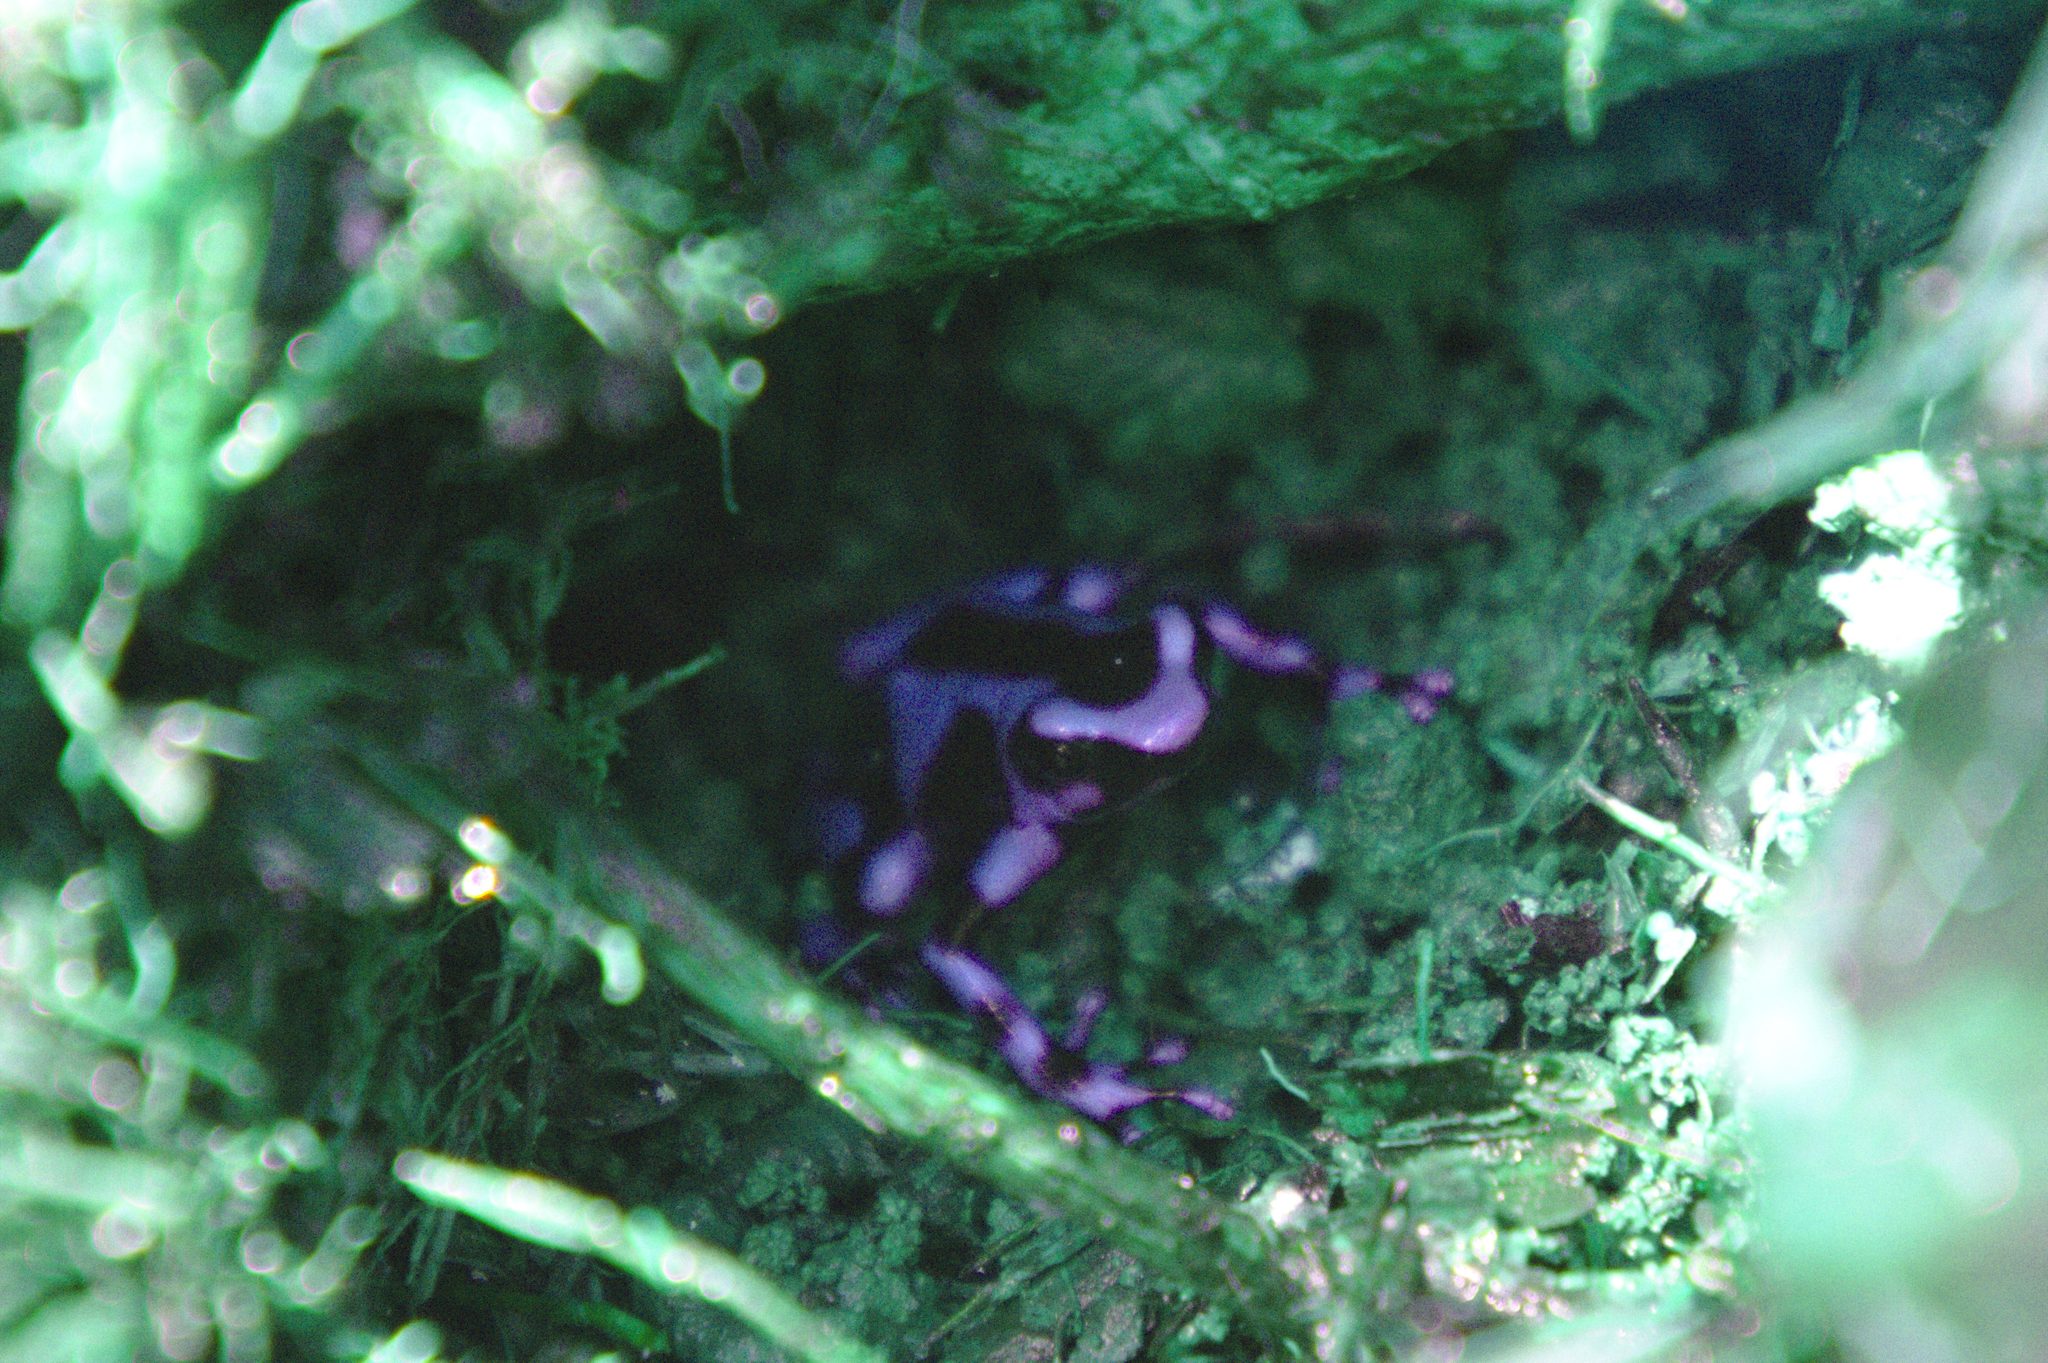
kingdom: Animalia
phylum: Chordata
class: Amphibia
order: Anura
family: Dendrobatidae
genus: Dendrobates
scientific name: Dendrobates auratus
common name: Green and black poison dart frog
